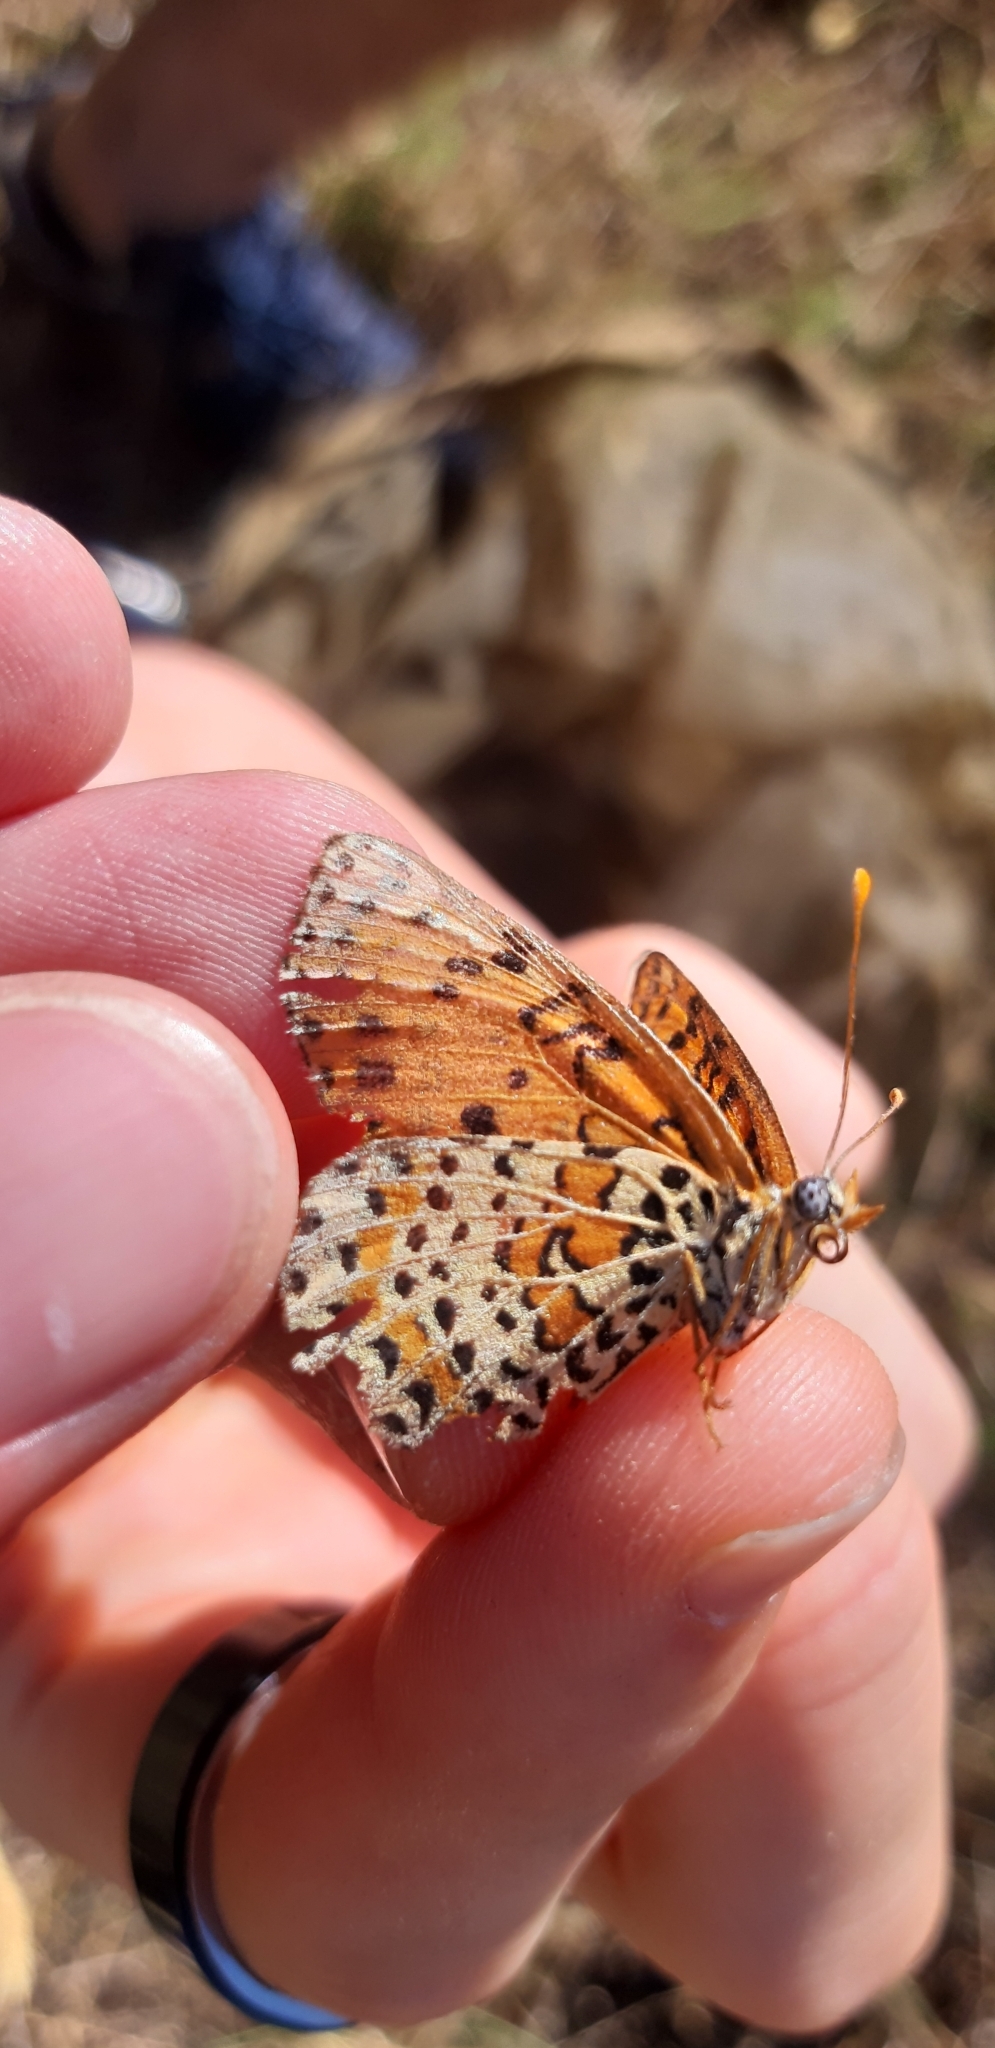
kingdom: Animalia
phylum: Arthropoda
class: Insecta
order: Lepidoptera
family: Nymphalidae
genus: Melitaea
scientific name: Melitaea didyma
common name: Spotted fritillary
